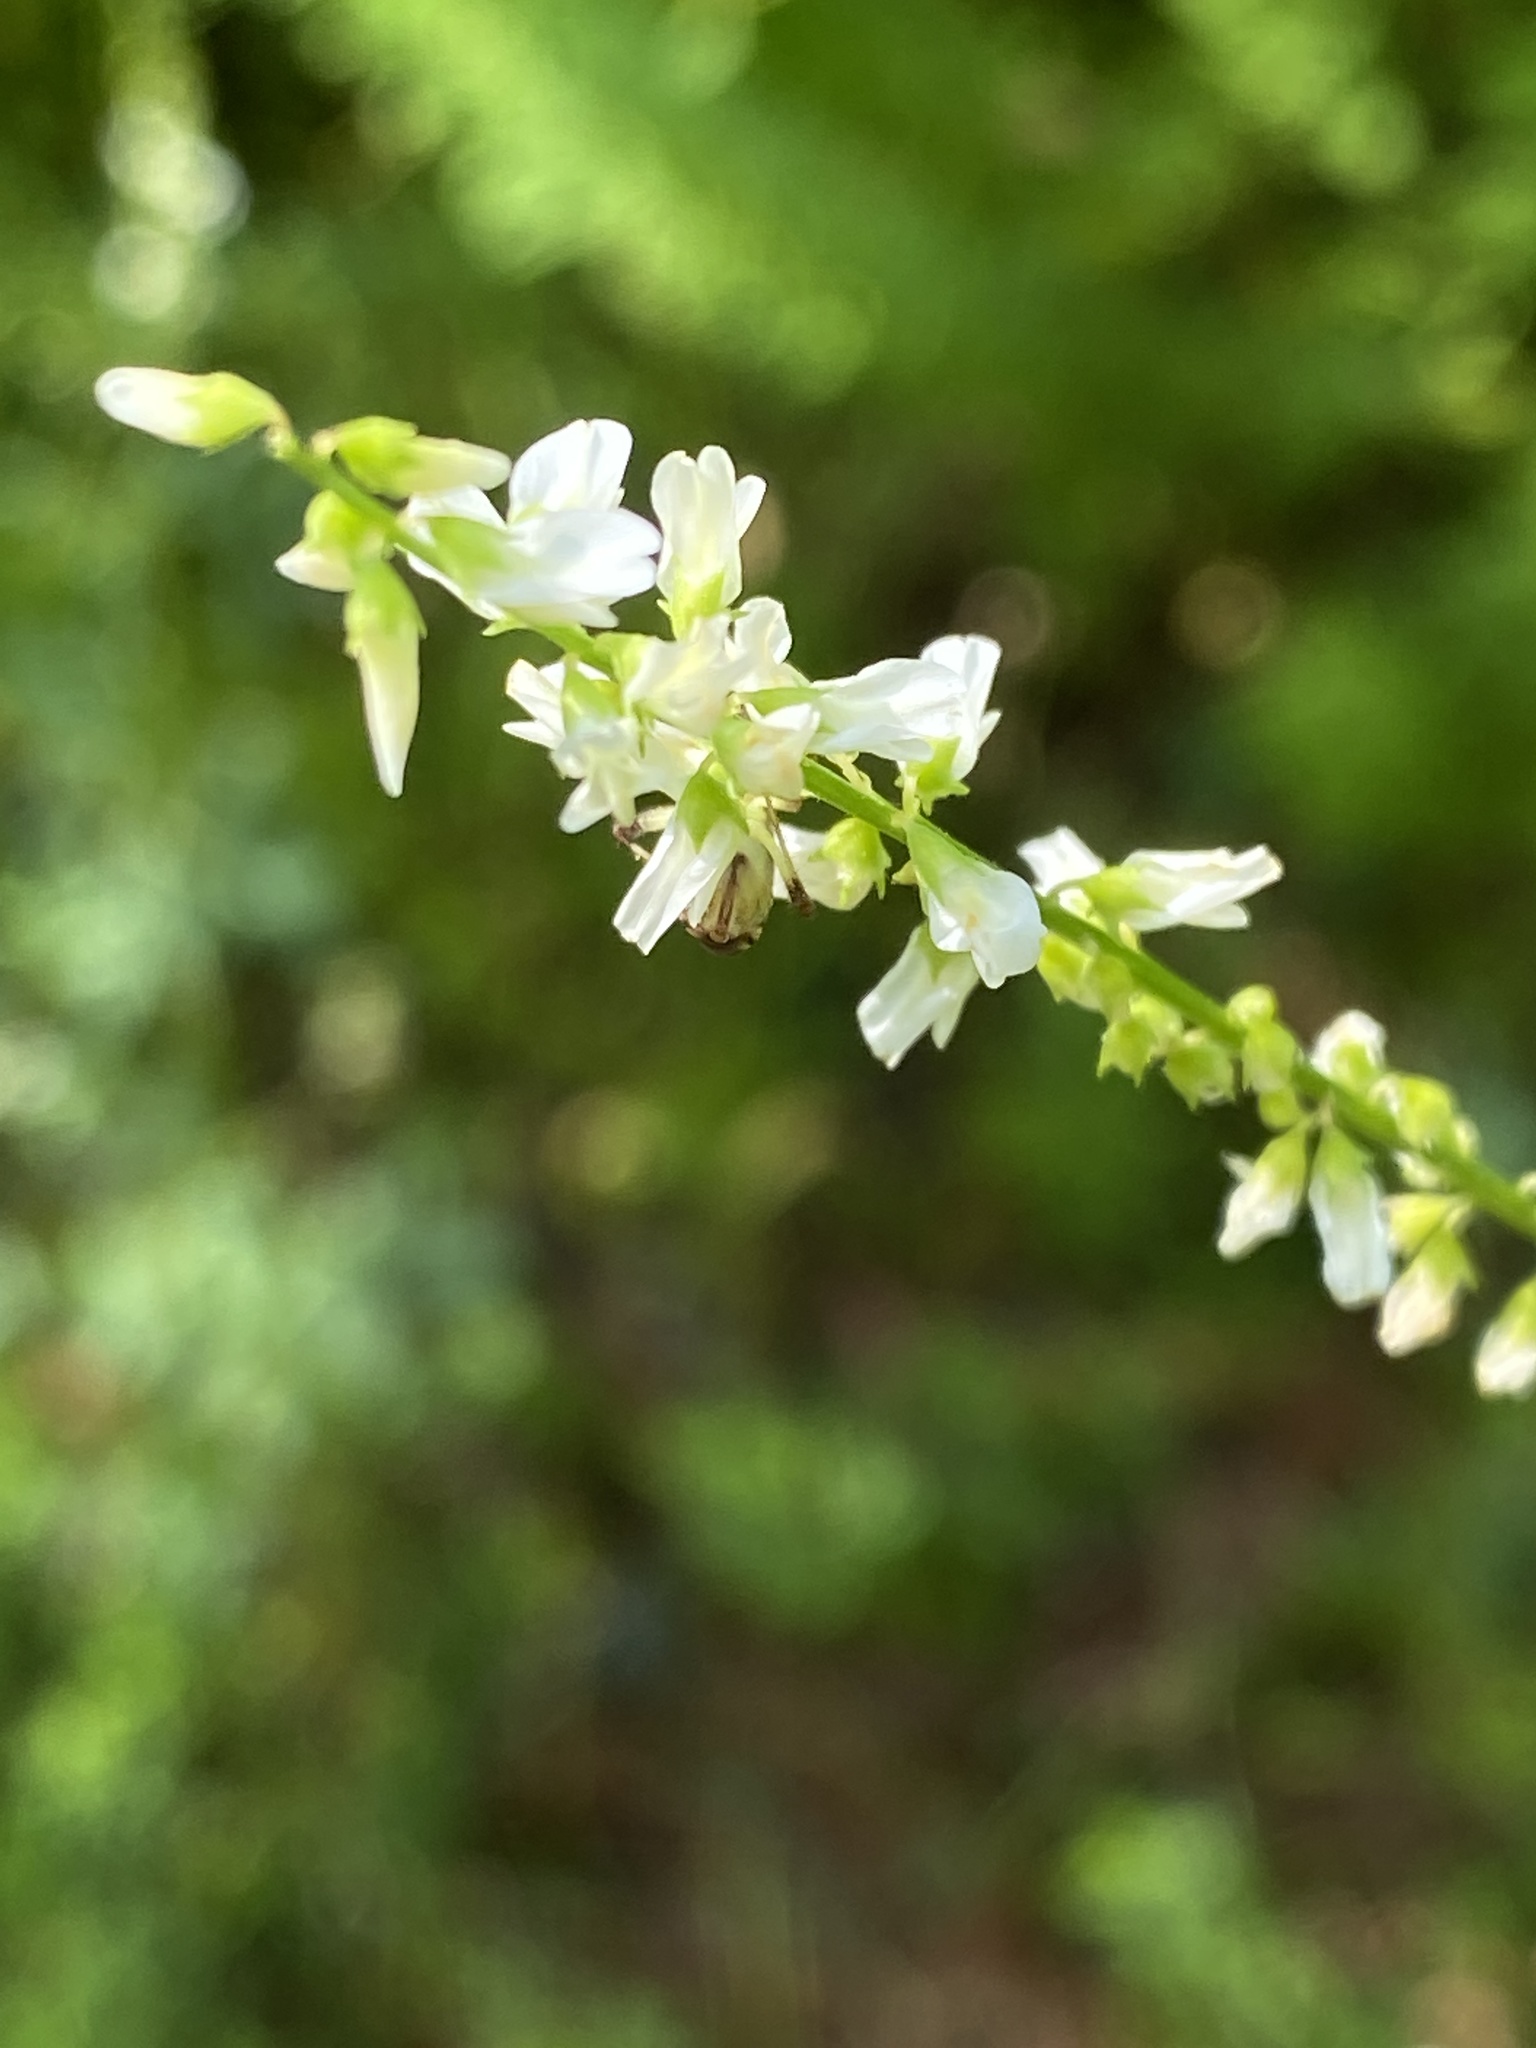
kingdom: Plantae
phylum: Tracheophyta
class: Magnoliopsida
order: Fabales
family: Fabaceae
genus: Melilotus
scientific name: Melilotus albus
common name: White melilot
